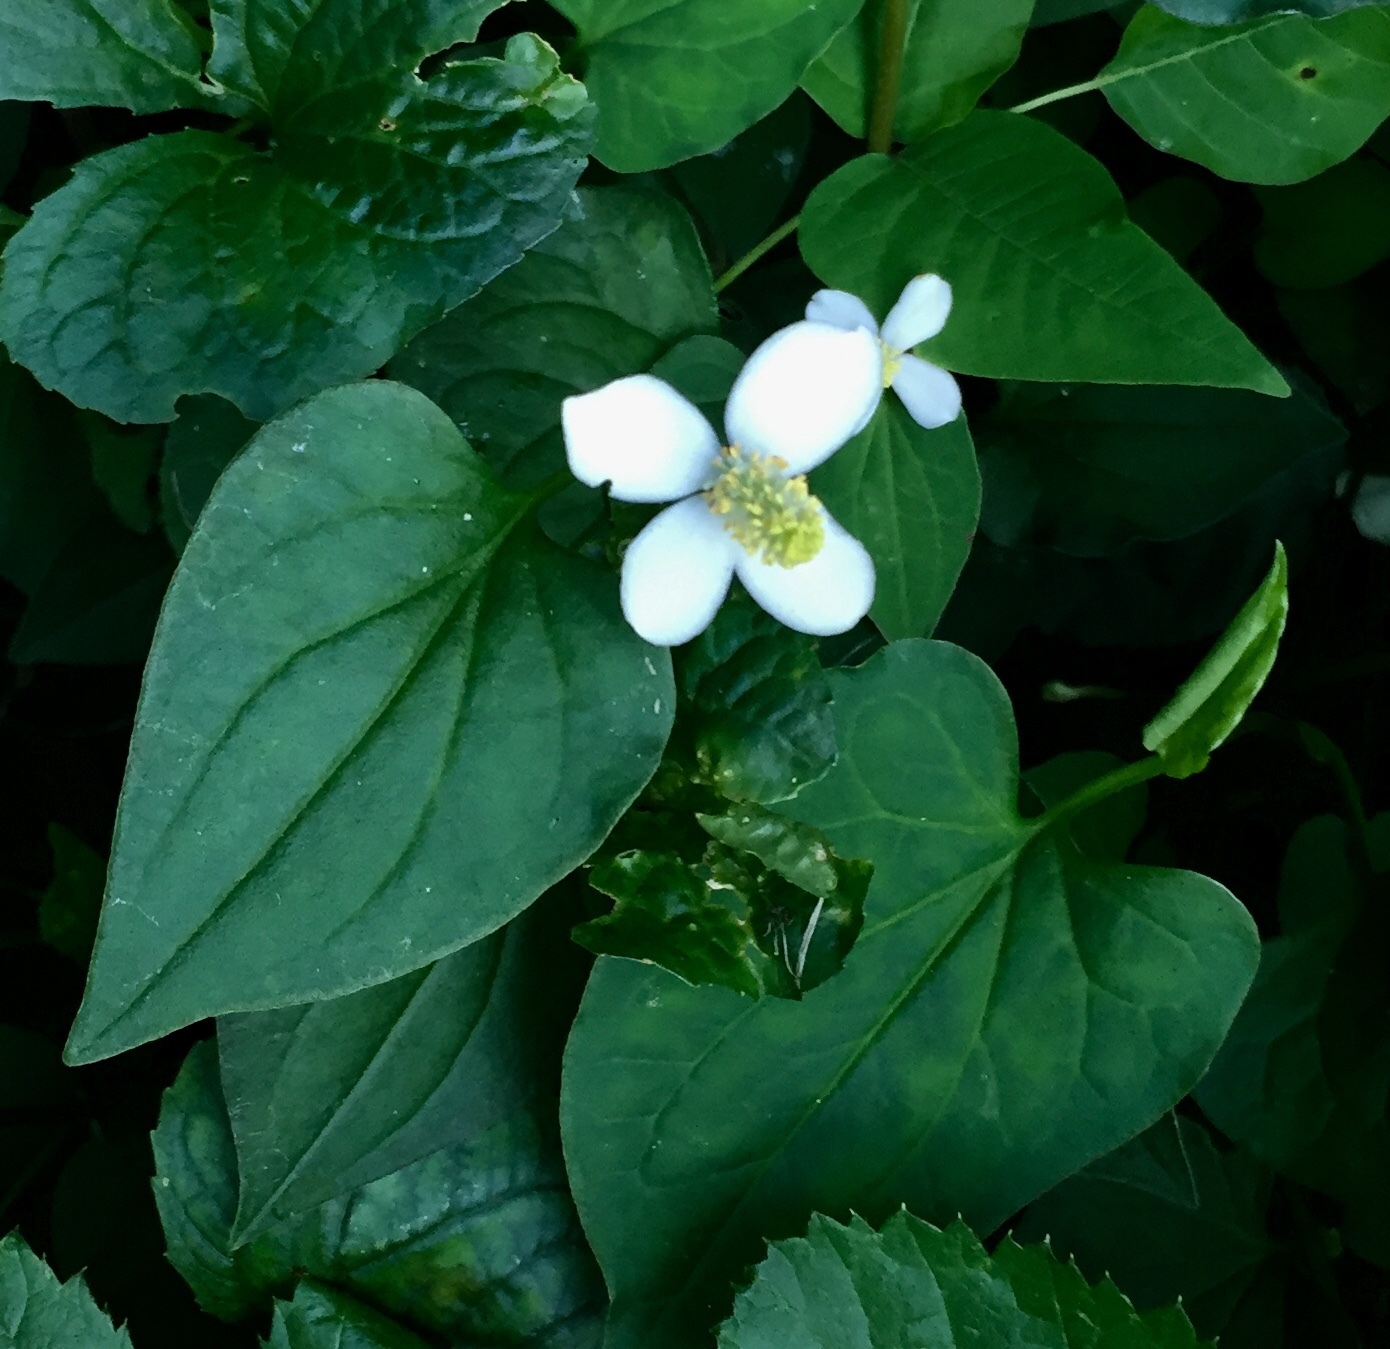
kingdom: Plantae
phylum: Tracheophyta
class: Magnoliopsida
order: Piperales
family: Saururaceae
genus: Houttuynia
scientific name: Houttuynia cordata
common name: Chameleon
